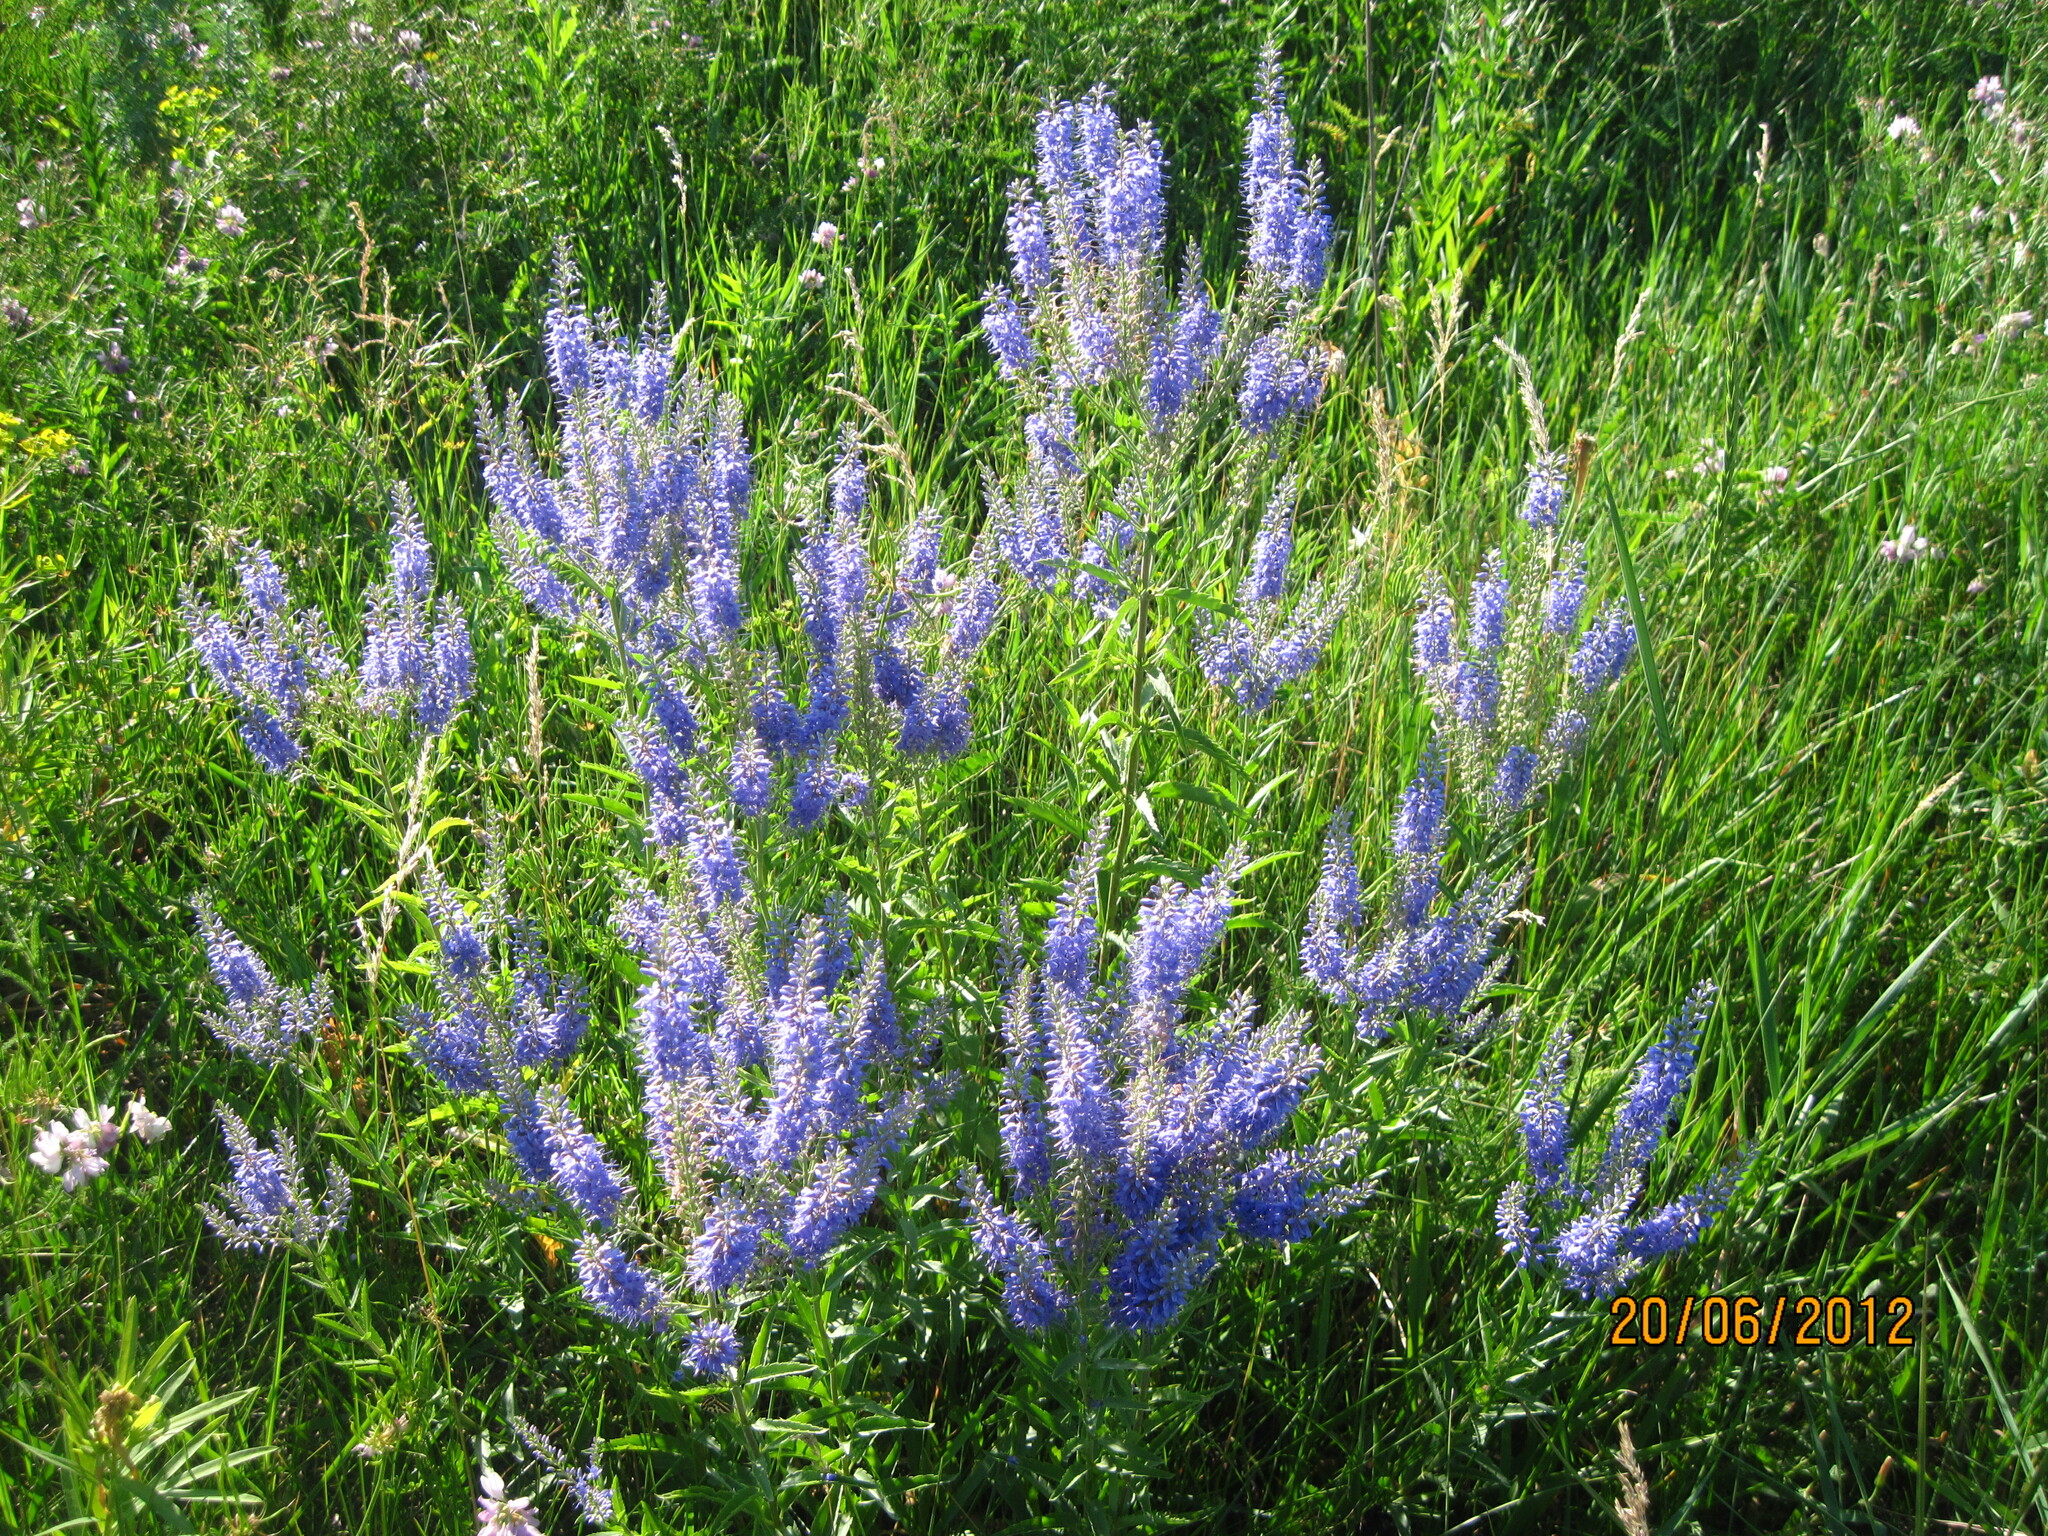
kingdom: Plantae
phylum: Tracheophyta
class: Magnoliopsida
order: Lamiales
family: Plantaginaceae
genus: Veronica
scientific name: Veronica spuria
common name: Bastard speedwell
